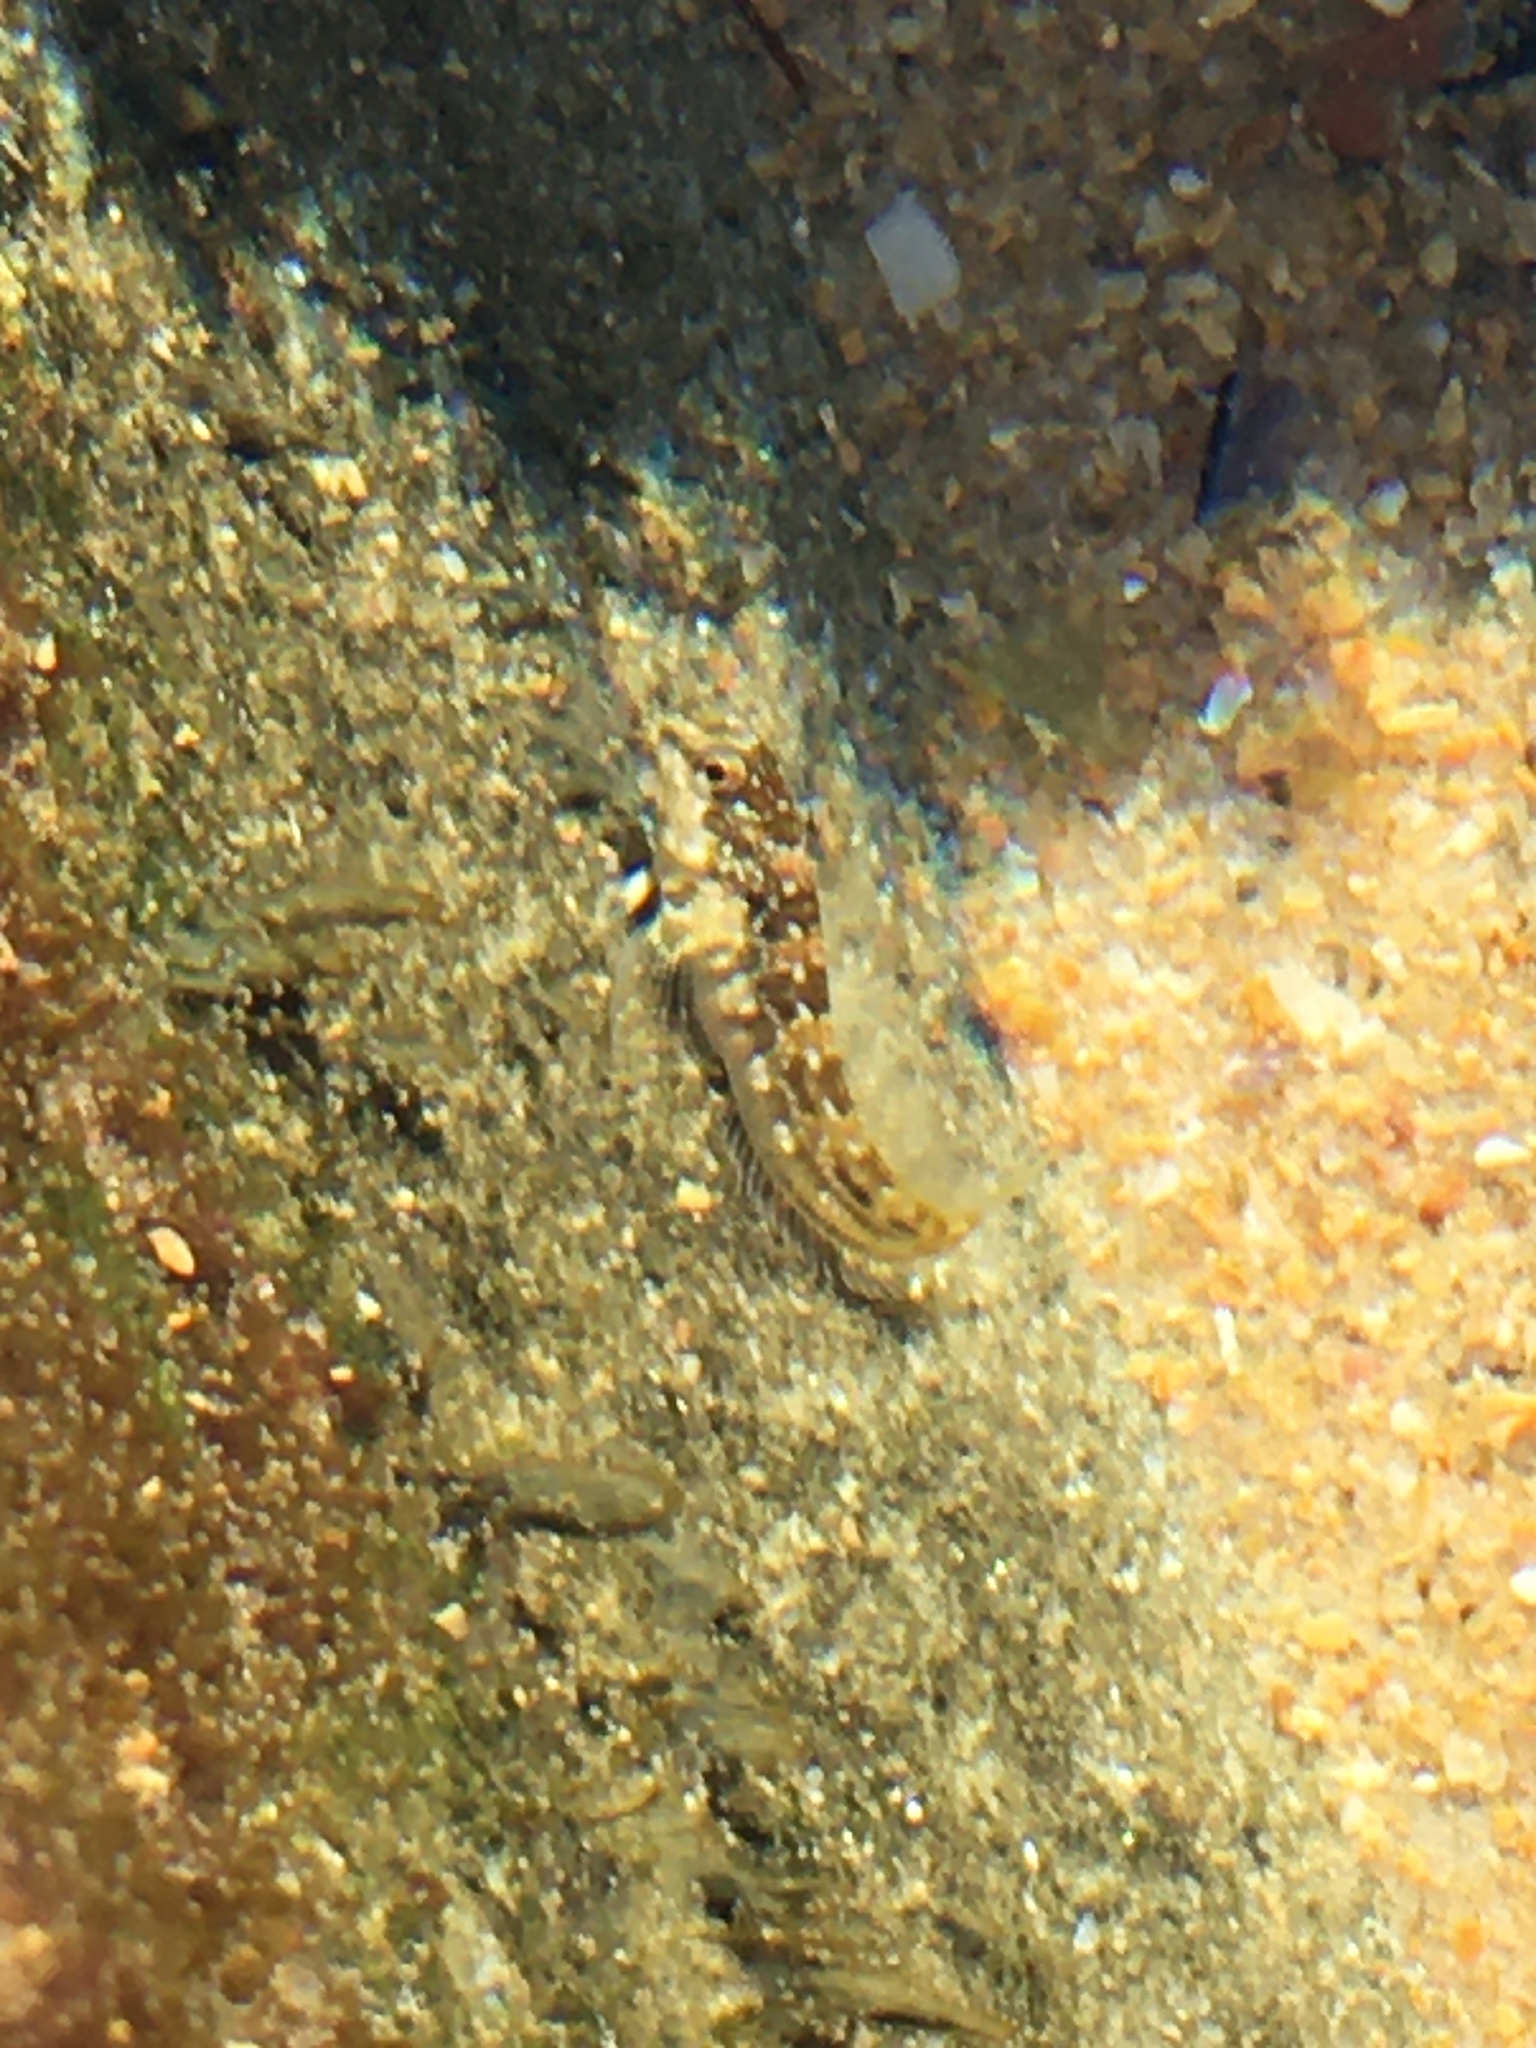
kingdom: Animalia
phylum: Chordata
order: Perciformes
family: Blenniidae
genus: Lipophrys
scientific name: Lipophrys trigloides
